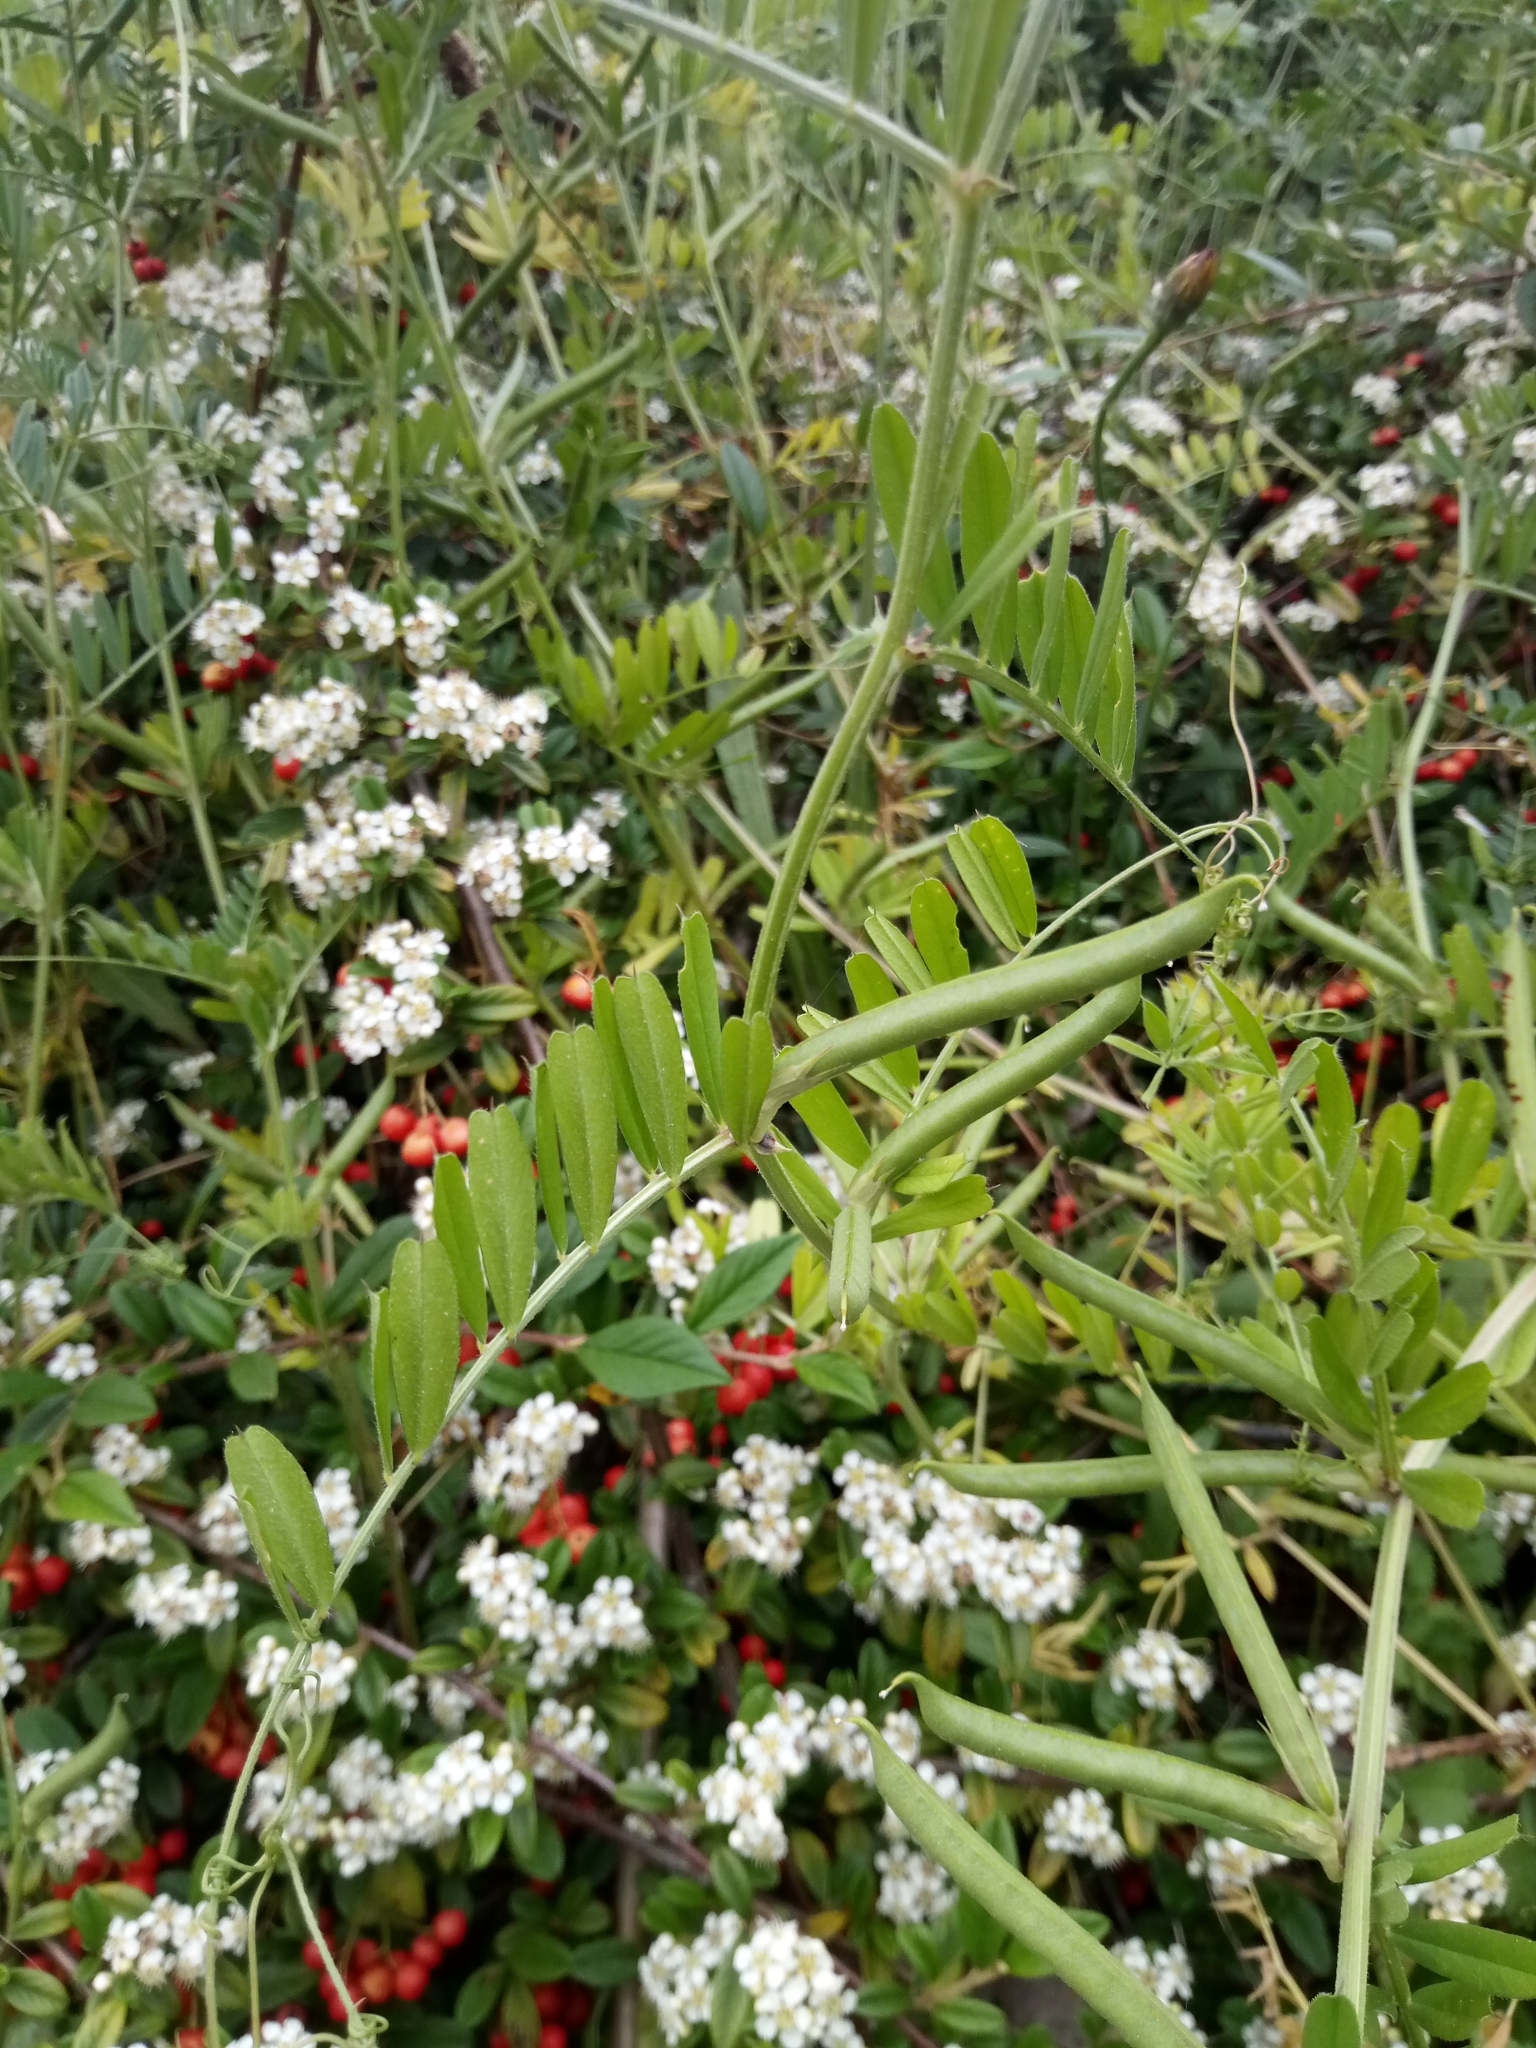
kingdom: Plantae
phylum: Tracheophyta
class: Magnoliopsida
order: Fabales
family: Fabaceae
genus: Vicia
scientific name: Vicia sativa
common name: Garden vetch
